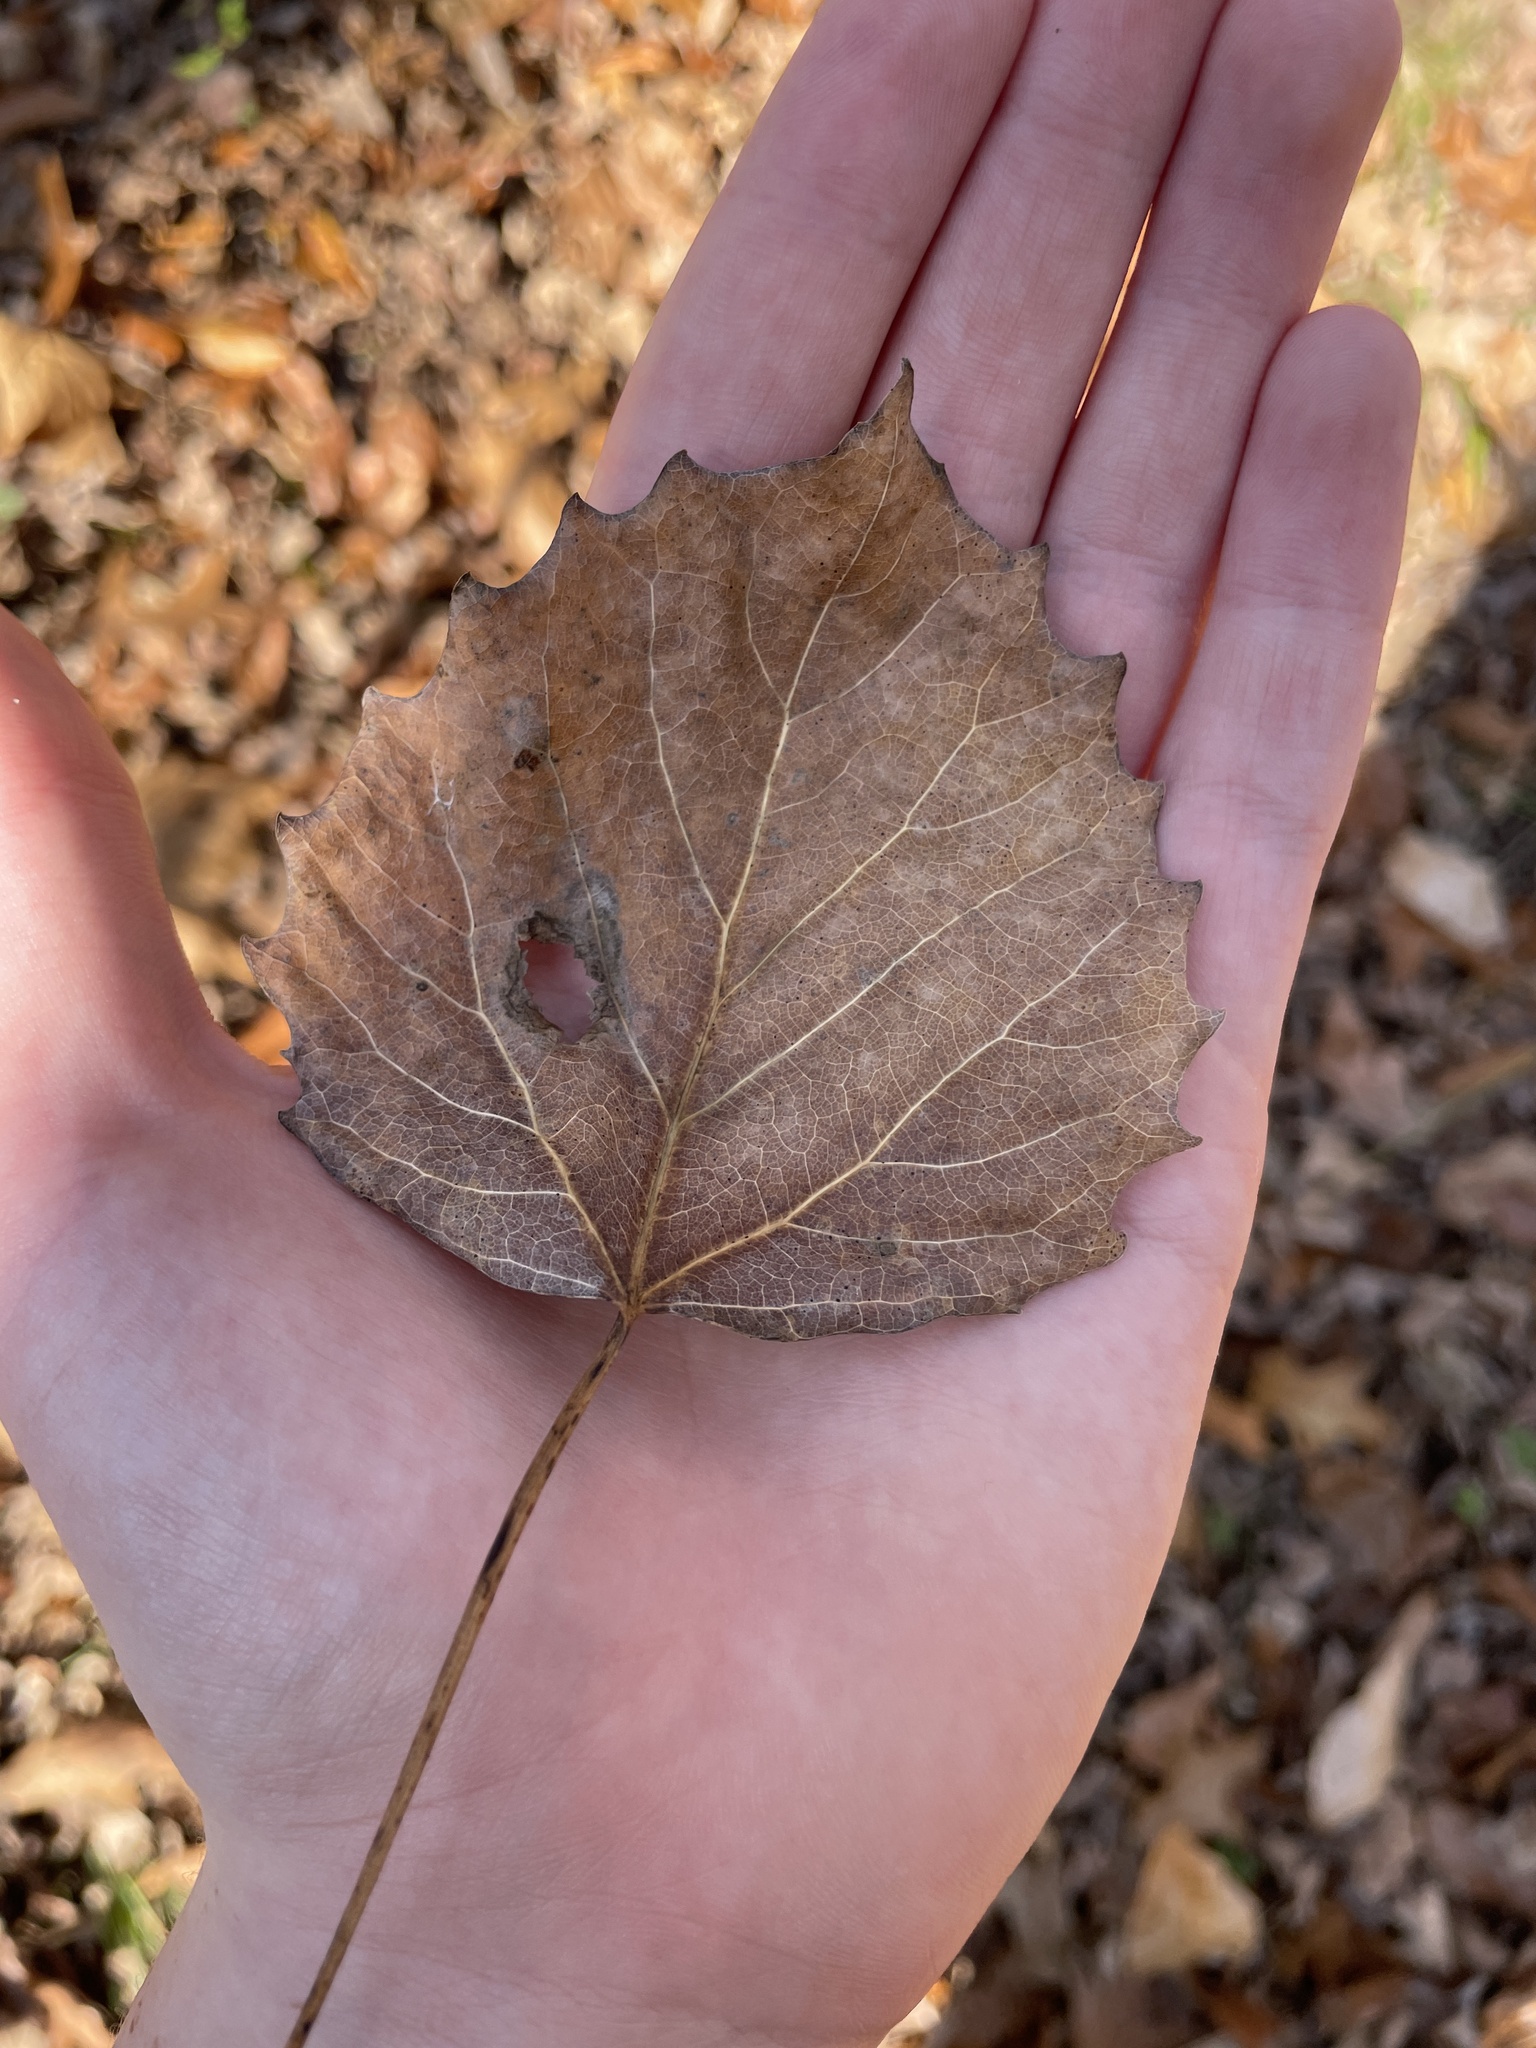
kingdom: Plantae
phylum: Tracheophyta
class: Magnoliopsida
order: Malpighiales
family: Salicaceae
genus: Populus
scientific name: Populus grandidentata
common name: Bigtooth aspen
